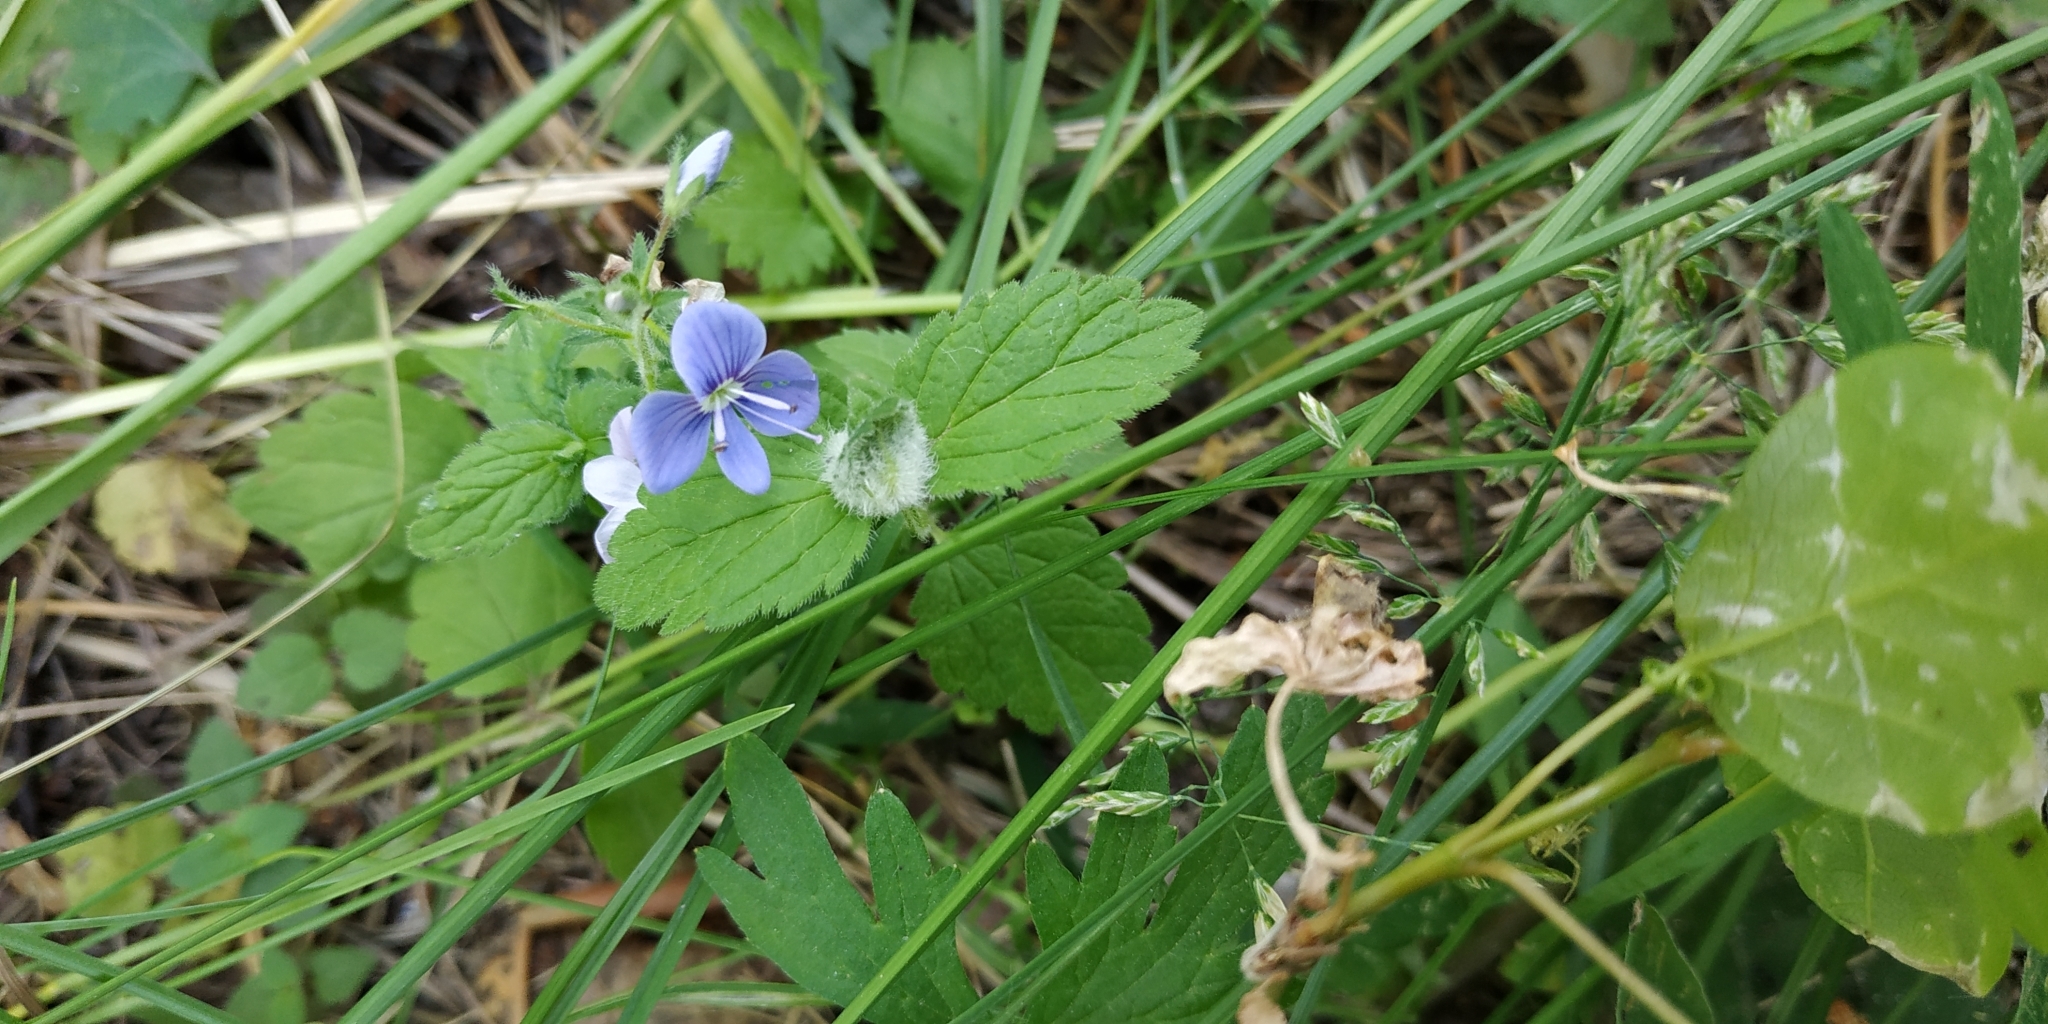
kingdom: Plantae
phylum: Tracheophyta
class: Magnoliopsida
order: Lamiales
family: Plantaginaceae
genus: Veronica
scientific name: Veronica chamaedrys
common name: Germander speedwell
